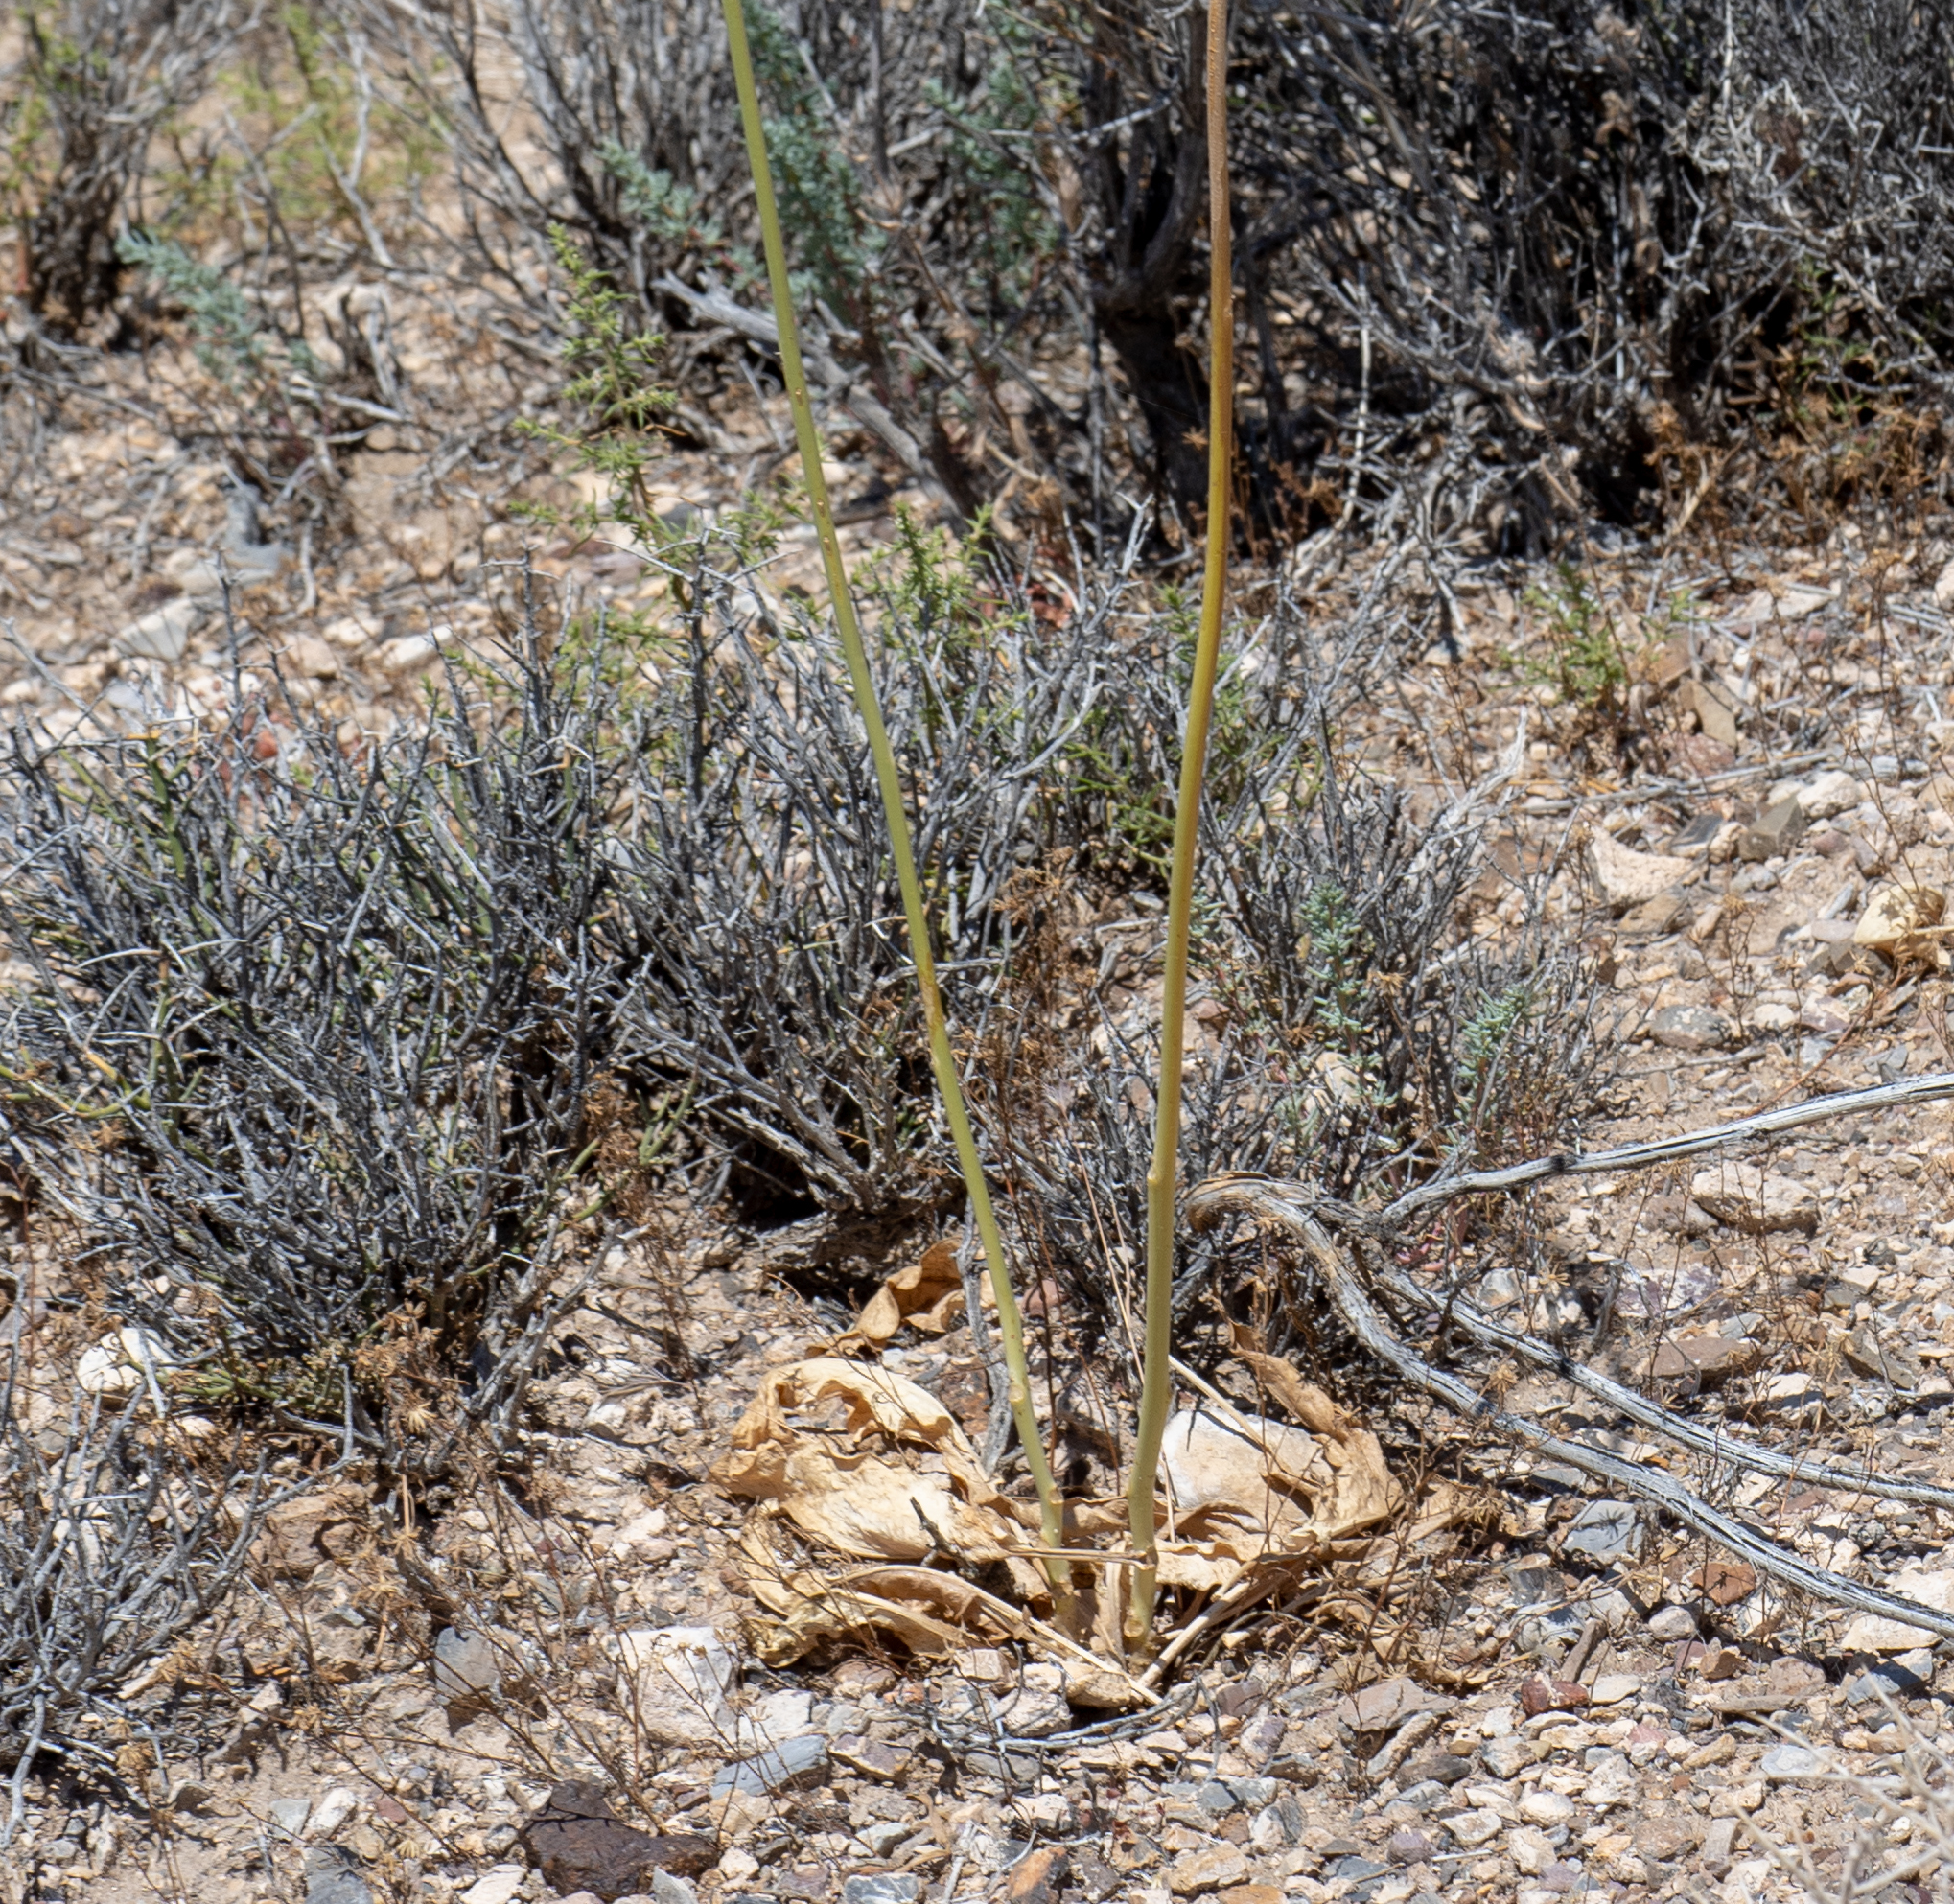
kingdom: Plantae
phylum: Tracheophyta
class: Magnoliopsida
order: Brassicales
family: Brassicaceae
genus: Stanleya
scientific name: Stanleya elata
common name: Panamint prince's plume
